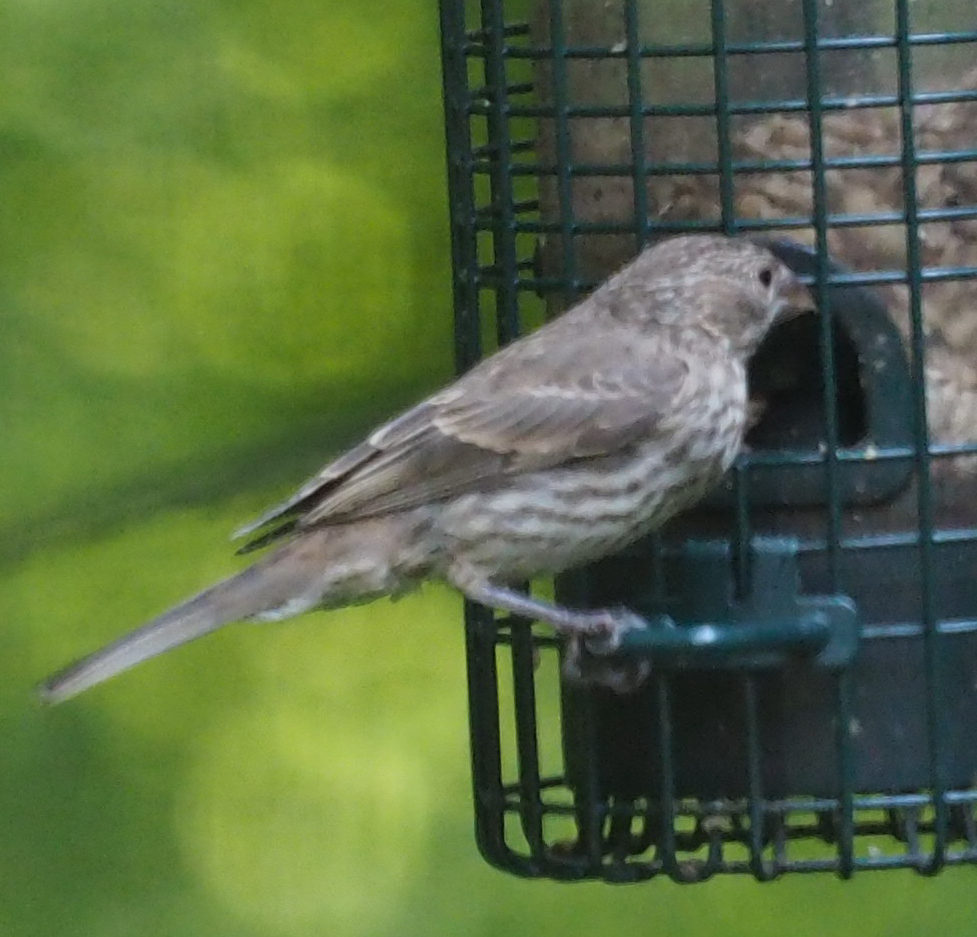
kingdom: Animalia
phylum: Chordata
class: Aves
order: Passeriformes
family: Fringillidae
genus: Haemorhous
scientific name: Haemorhous mexicanus
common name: House finch
